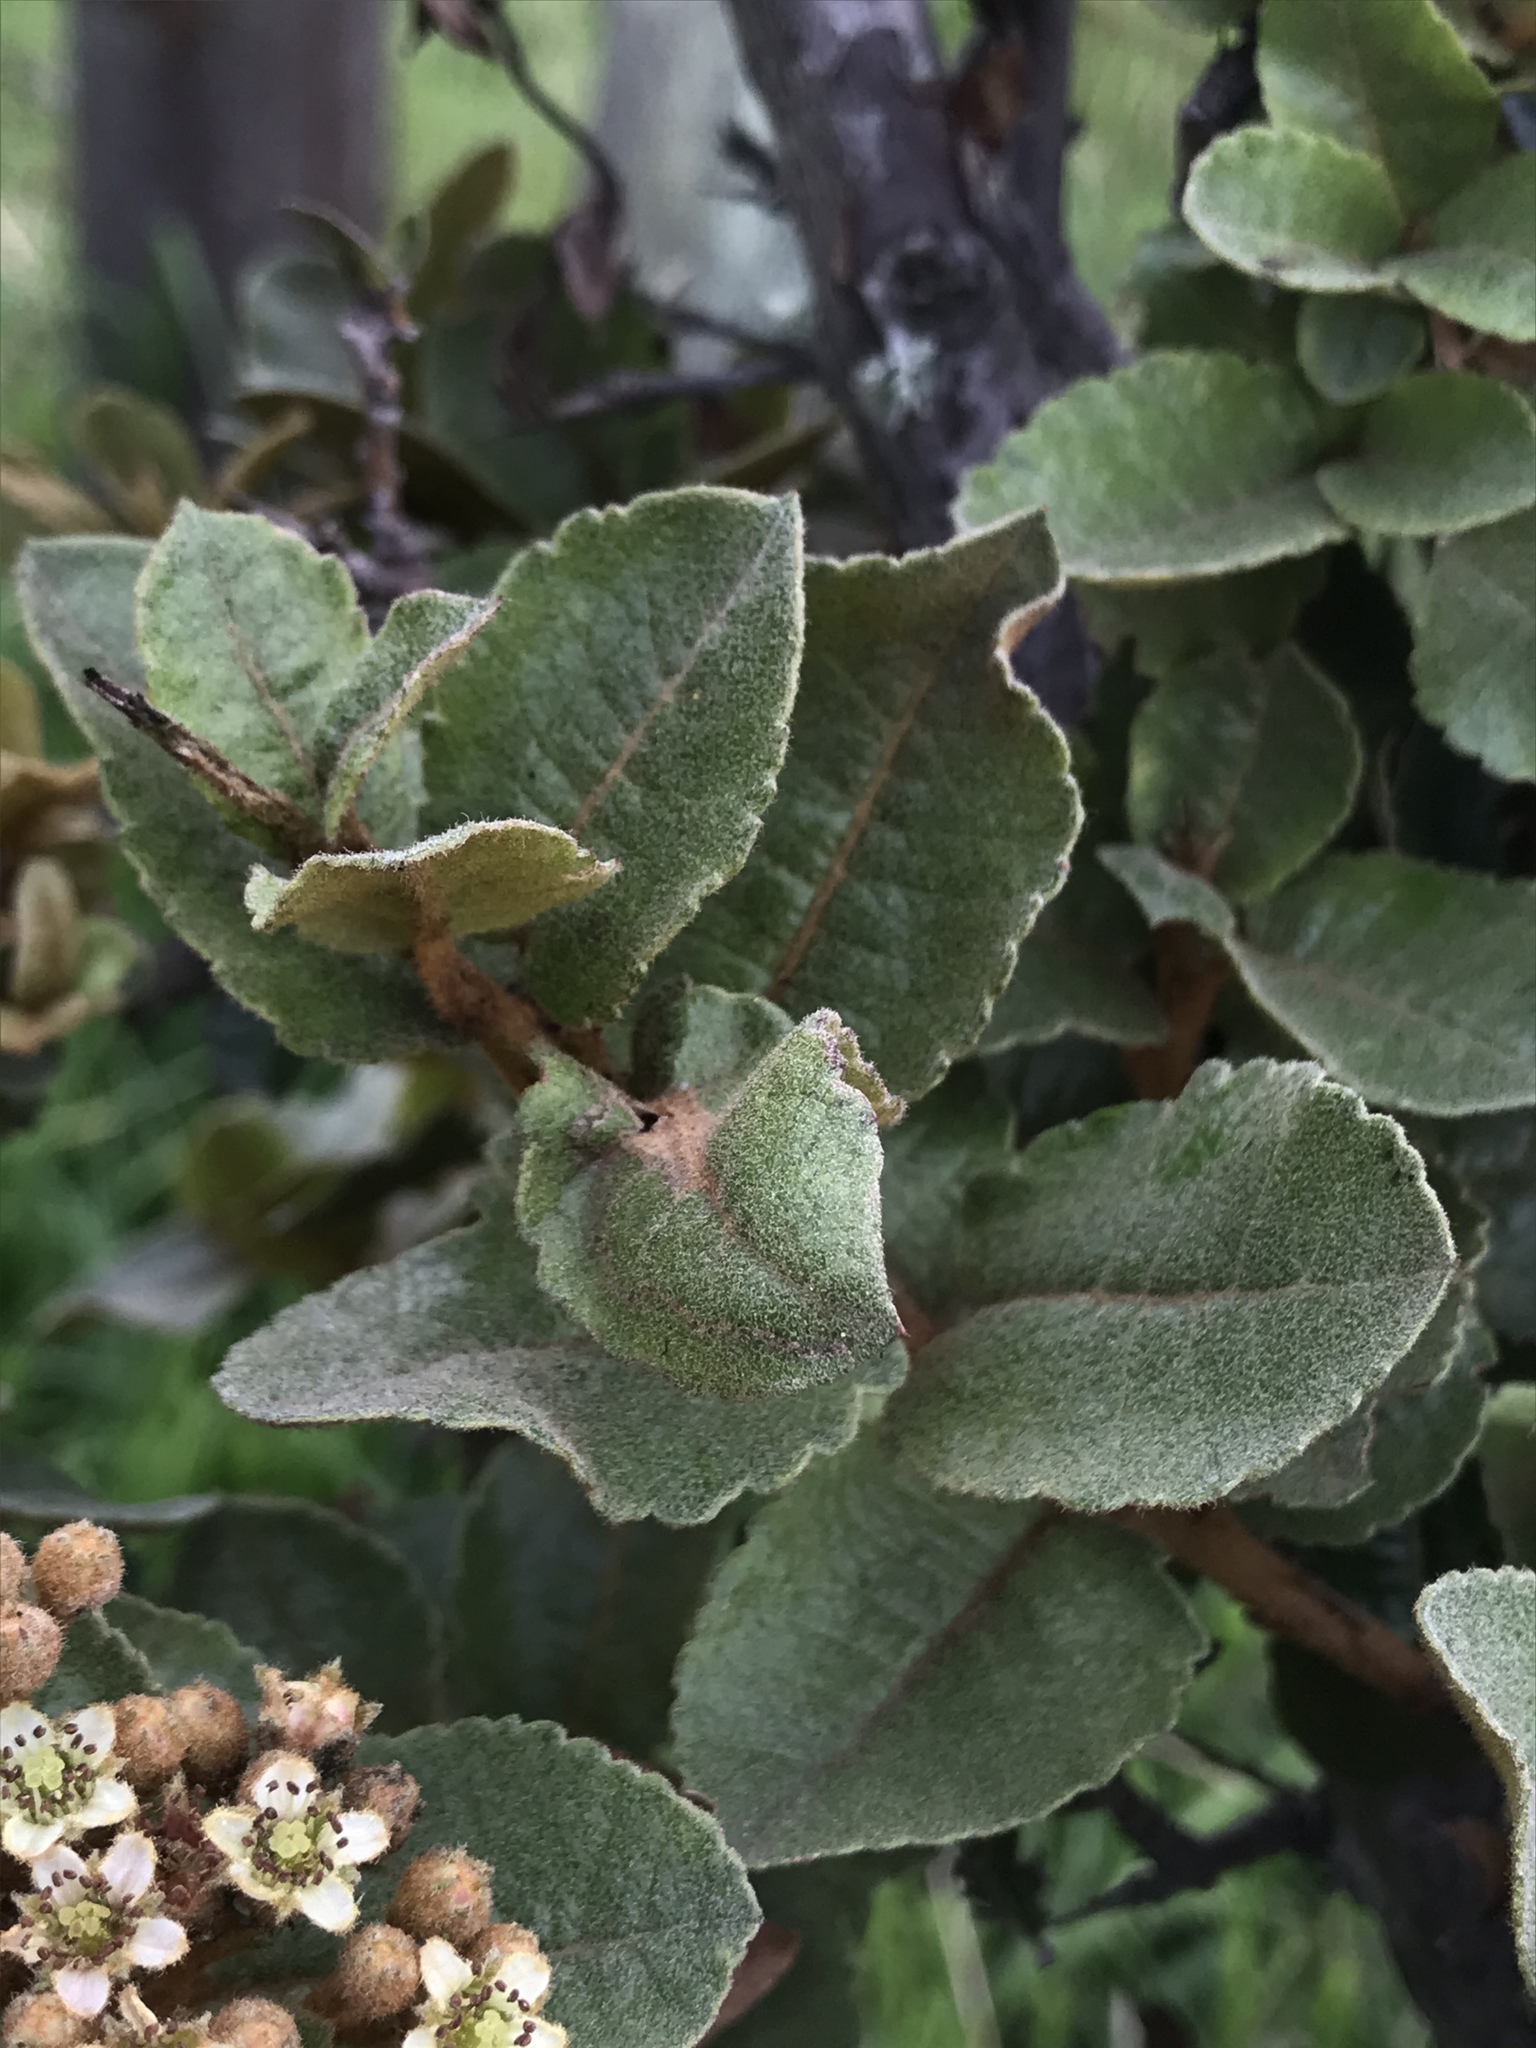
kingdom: Plantae
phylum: Tracheophyta
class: Magnoliopsida
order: Rosales
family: Rosaceae
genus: Hesperomeles
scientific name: Hesperomeles goudotiana
